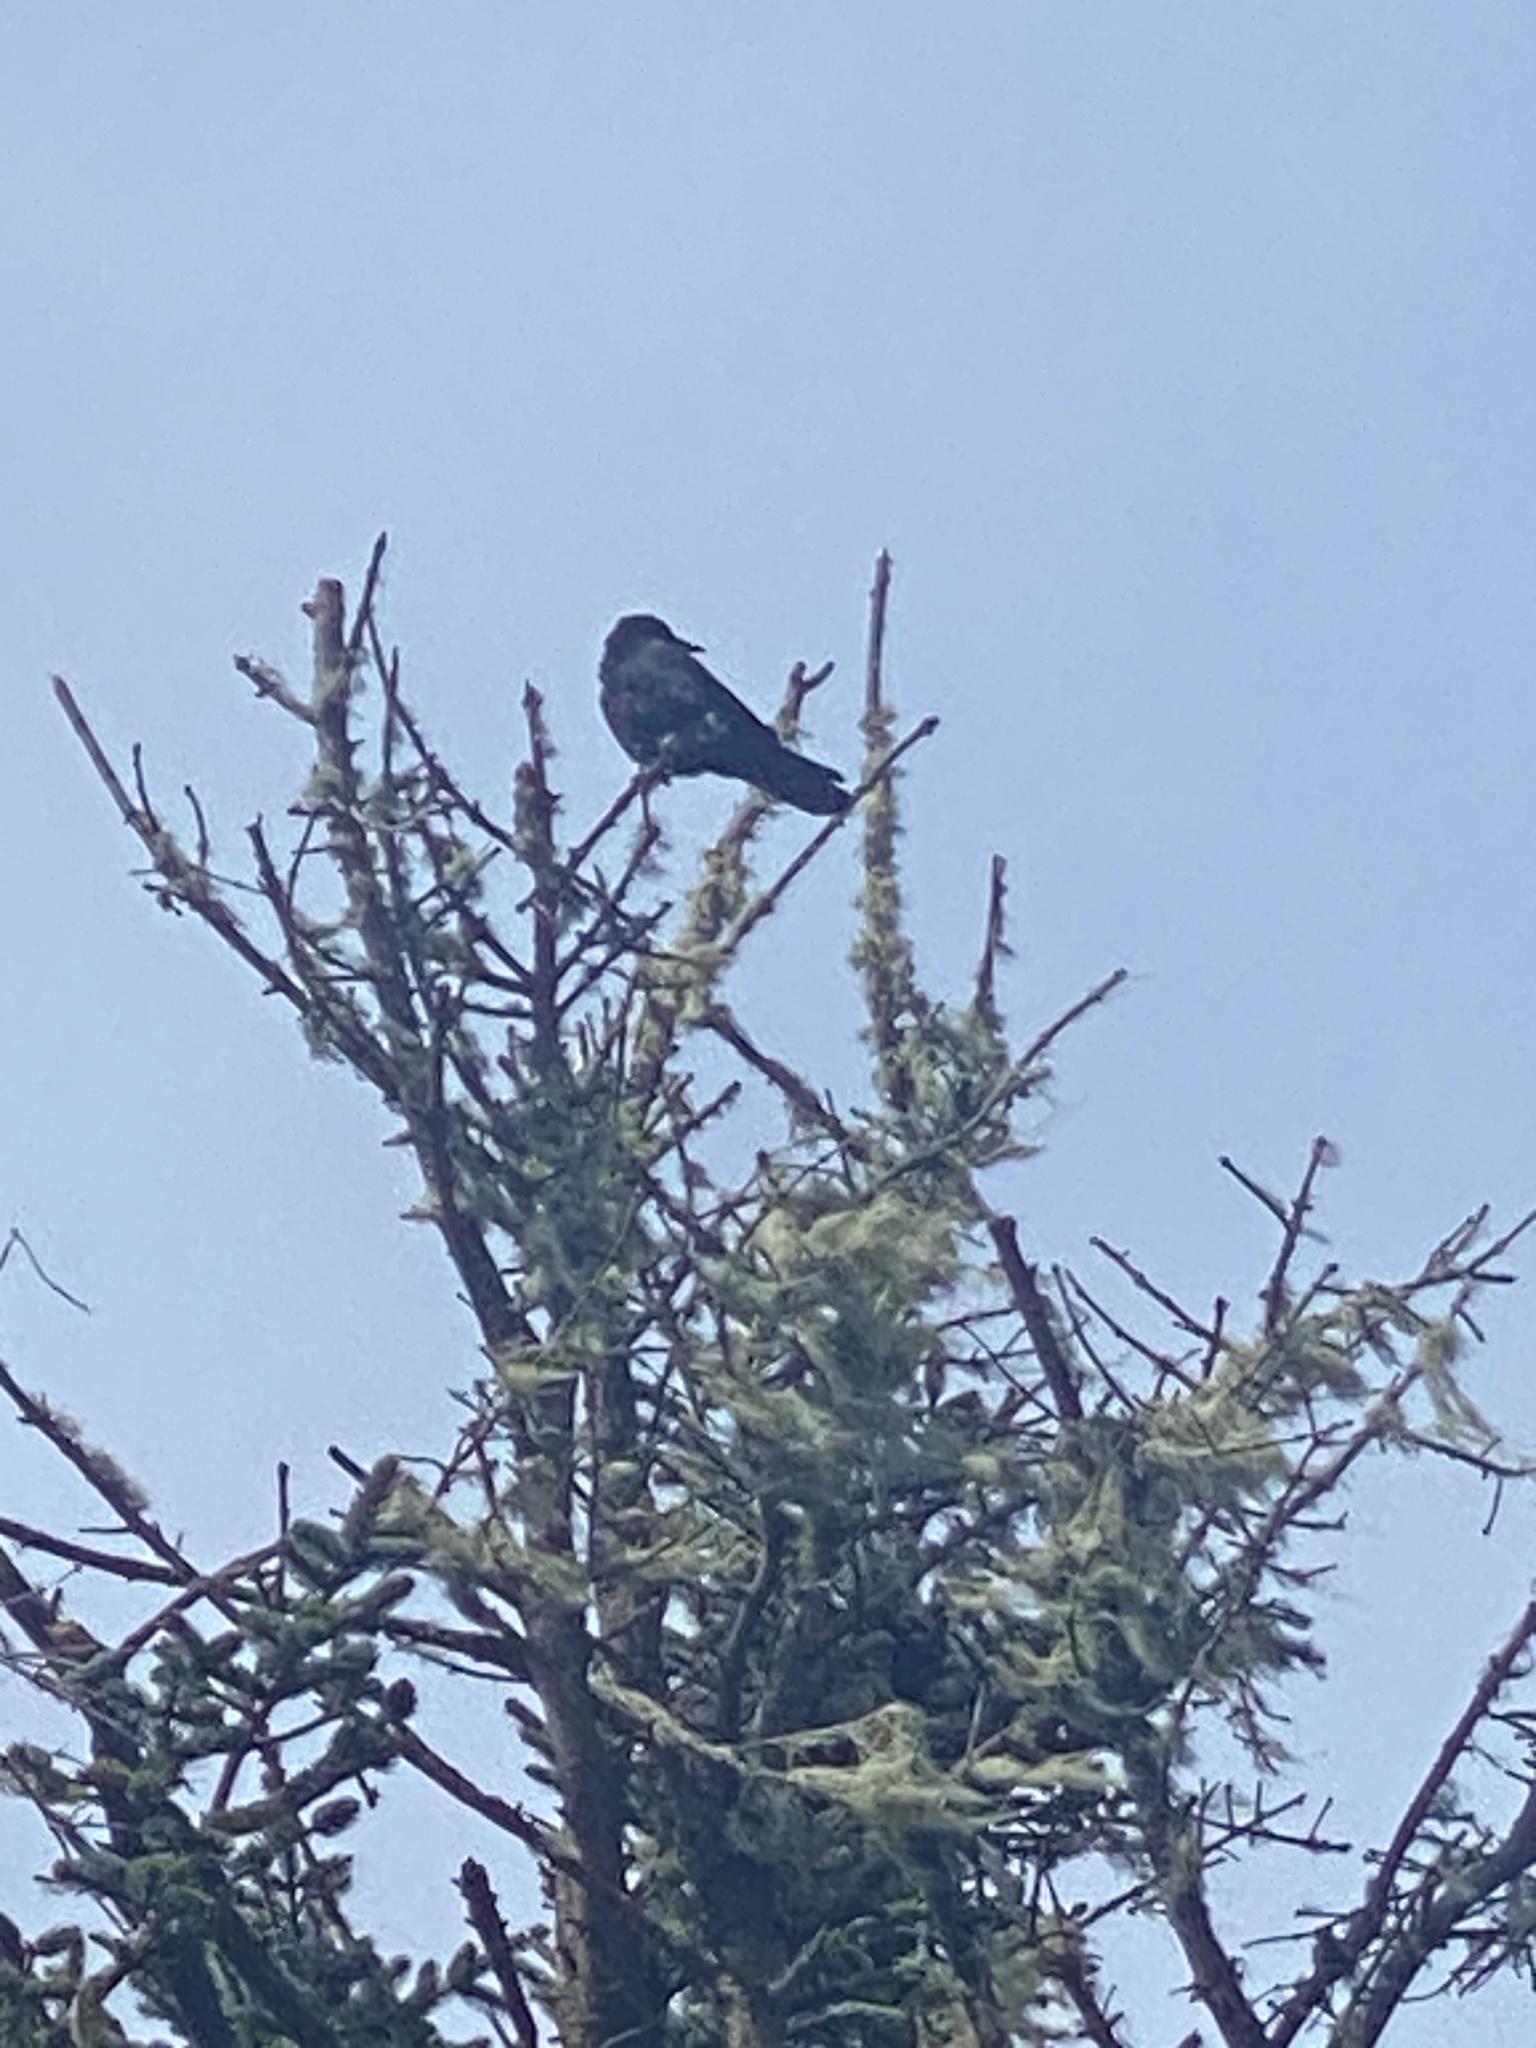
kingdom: Animalia
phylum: Chordata
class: Aves
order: Passeriformes
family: Corvidae
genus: Corvus
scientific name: Corvus brachyrhynchos
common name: American crow
